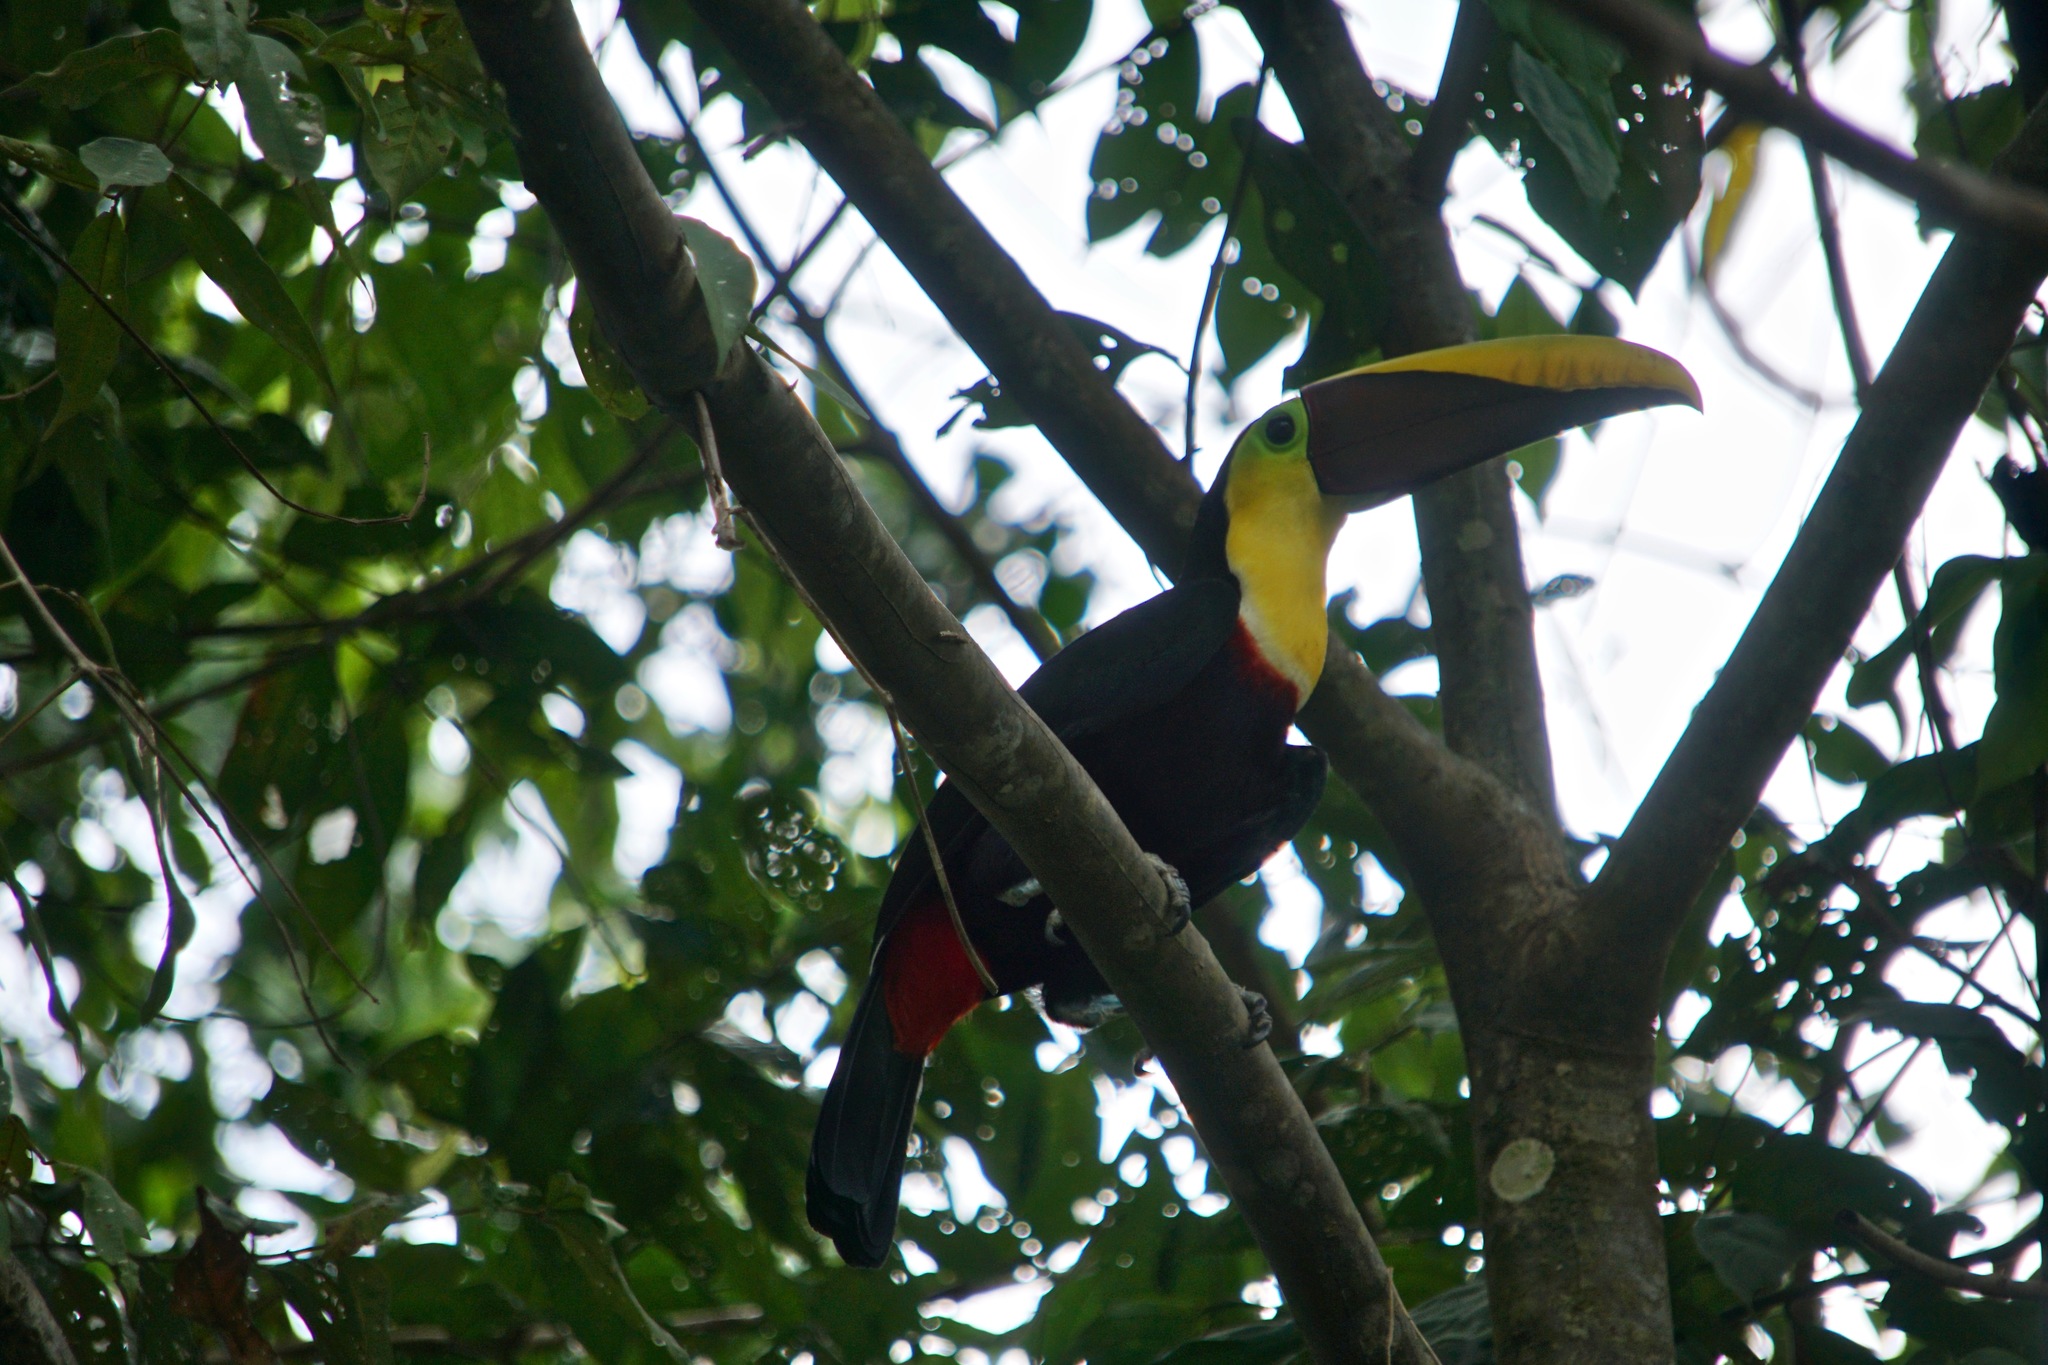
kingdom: Animalia
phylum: Chordata
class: Aves
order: Piciformes
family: Ramphastidae
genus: Ramphastos
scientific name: Ramphastos ambiguus
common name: Yellow-throated toucan
